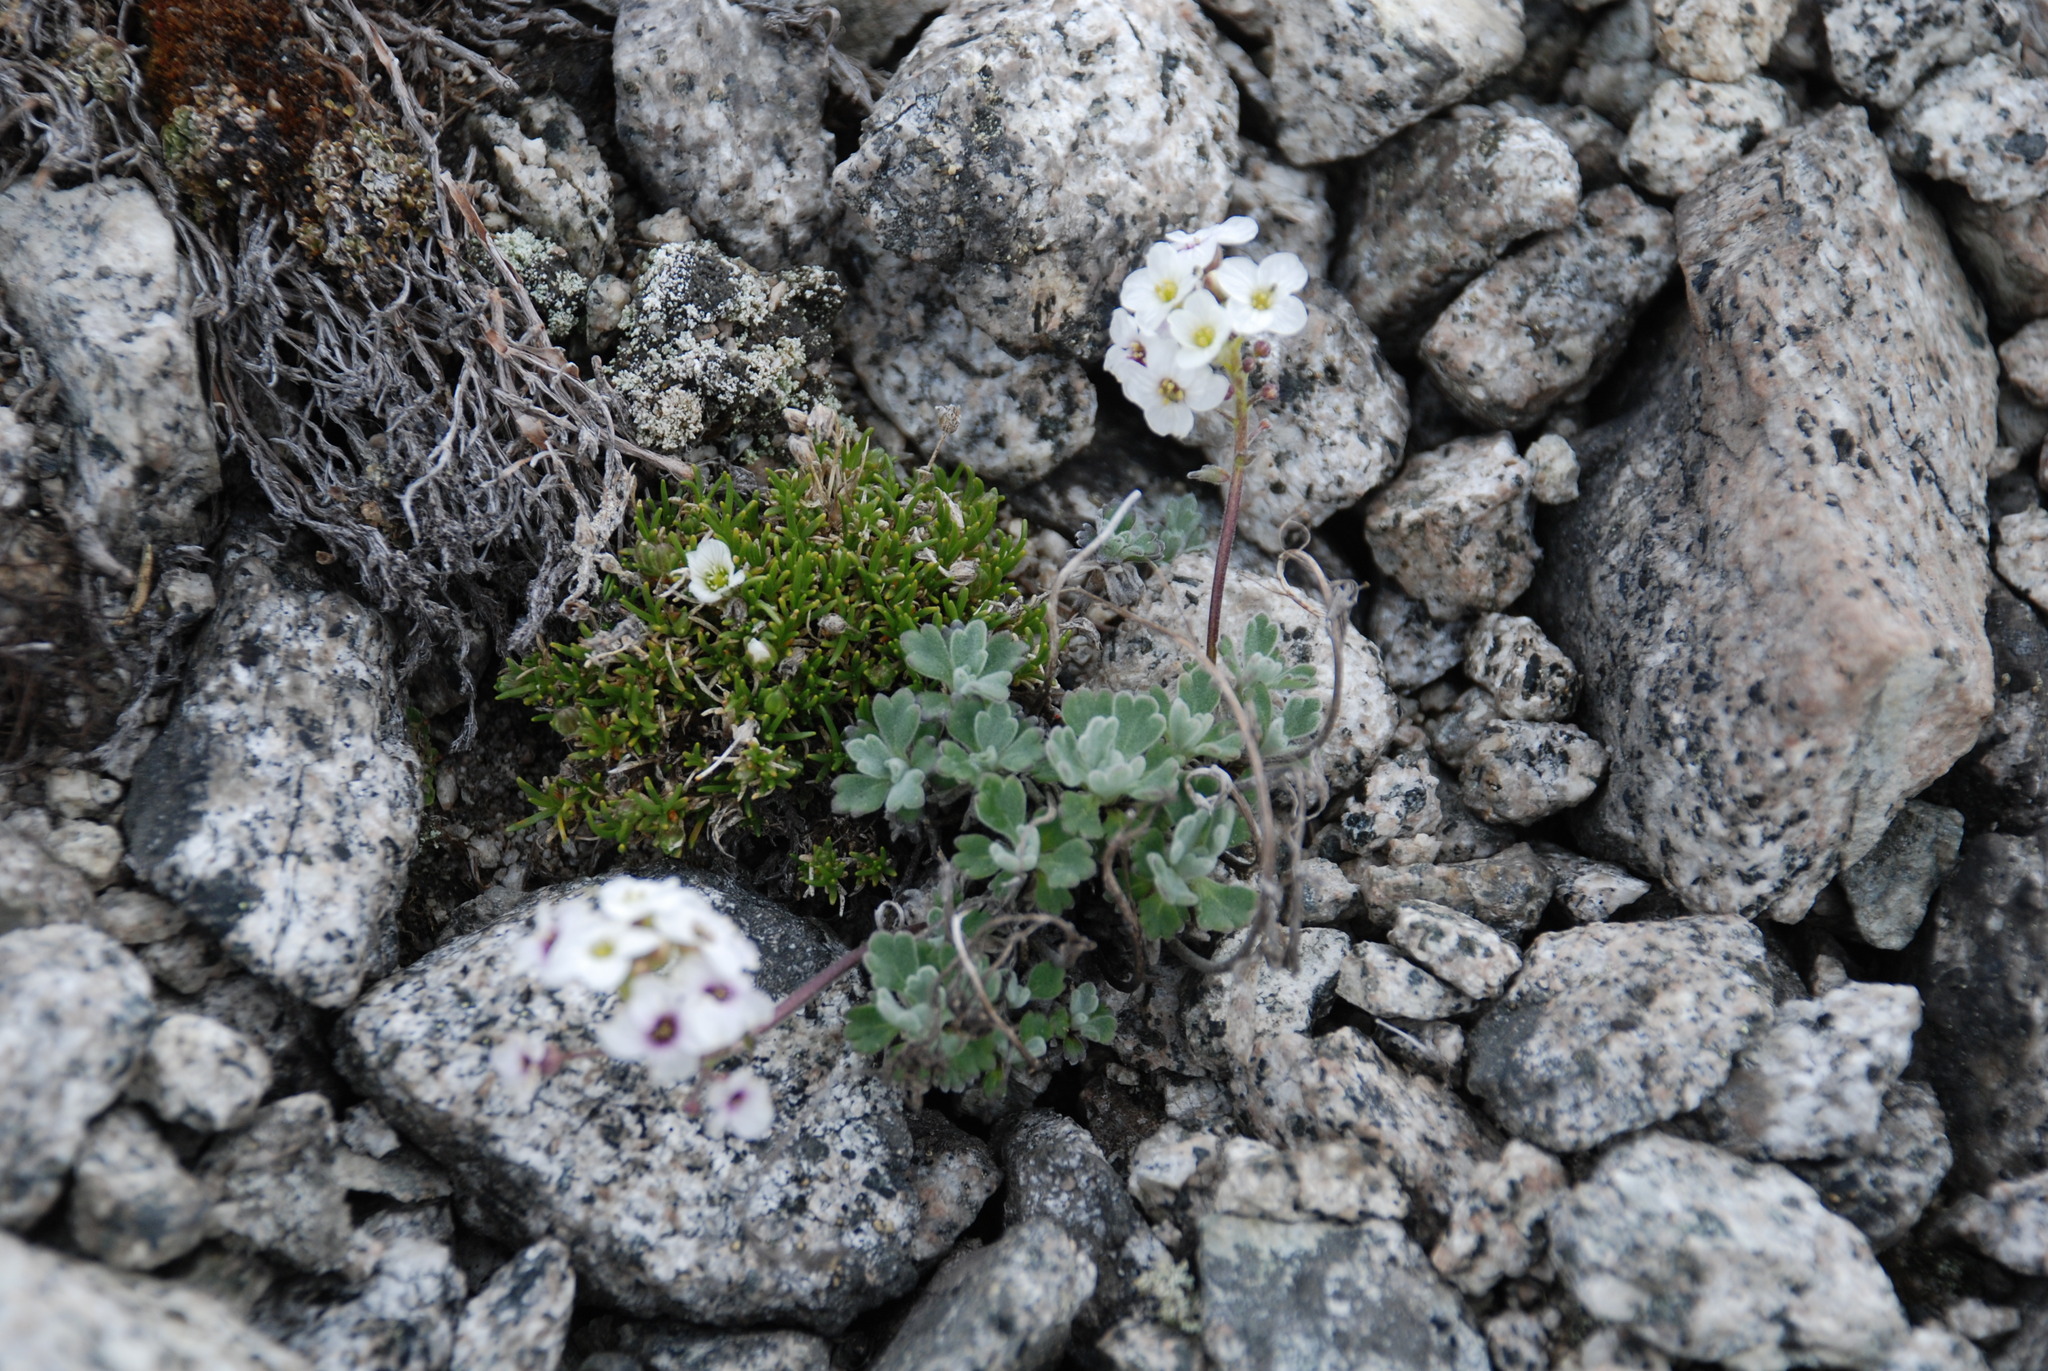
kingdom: Plantae
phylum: Tracheophyta
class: Magnoliopsida
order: Brassicales
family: Brassicaceae
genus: Smelowskia
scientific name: Smelowskia parryoides
